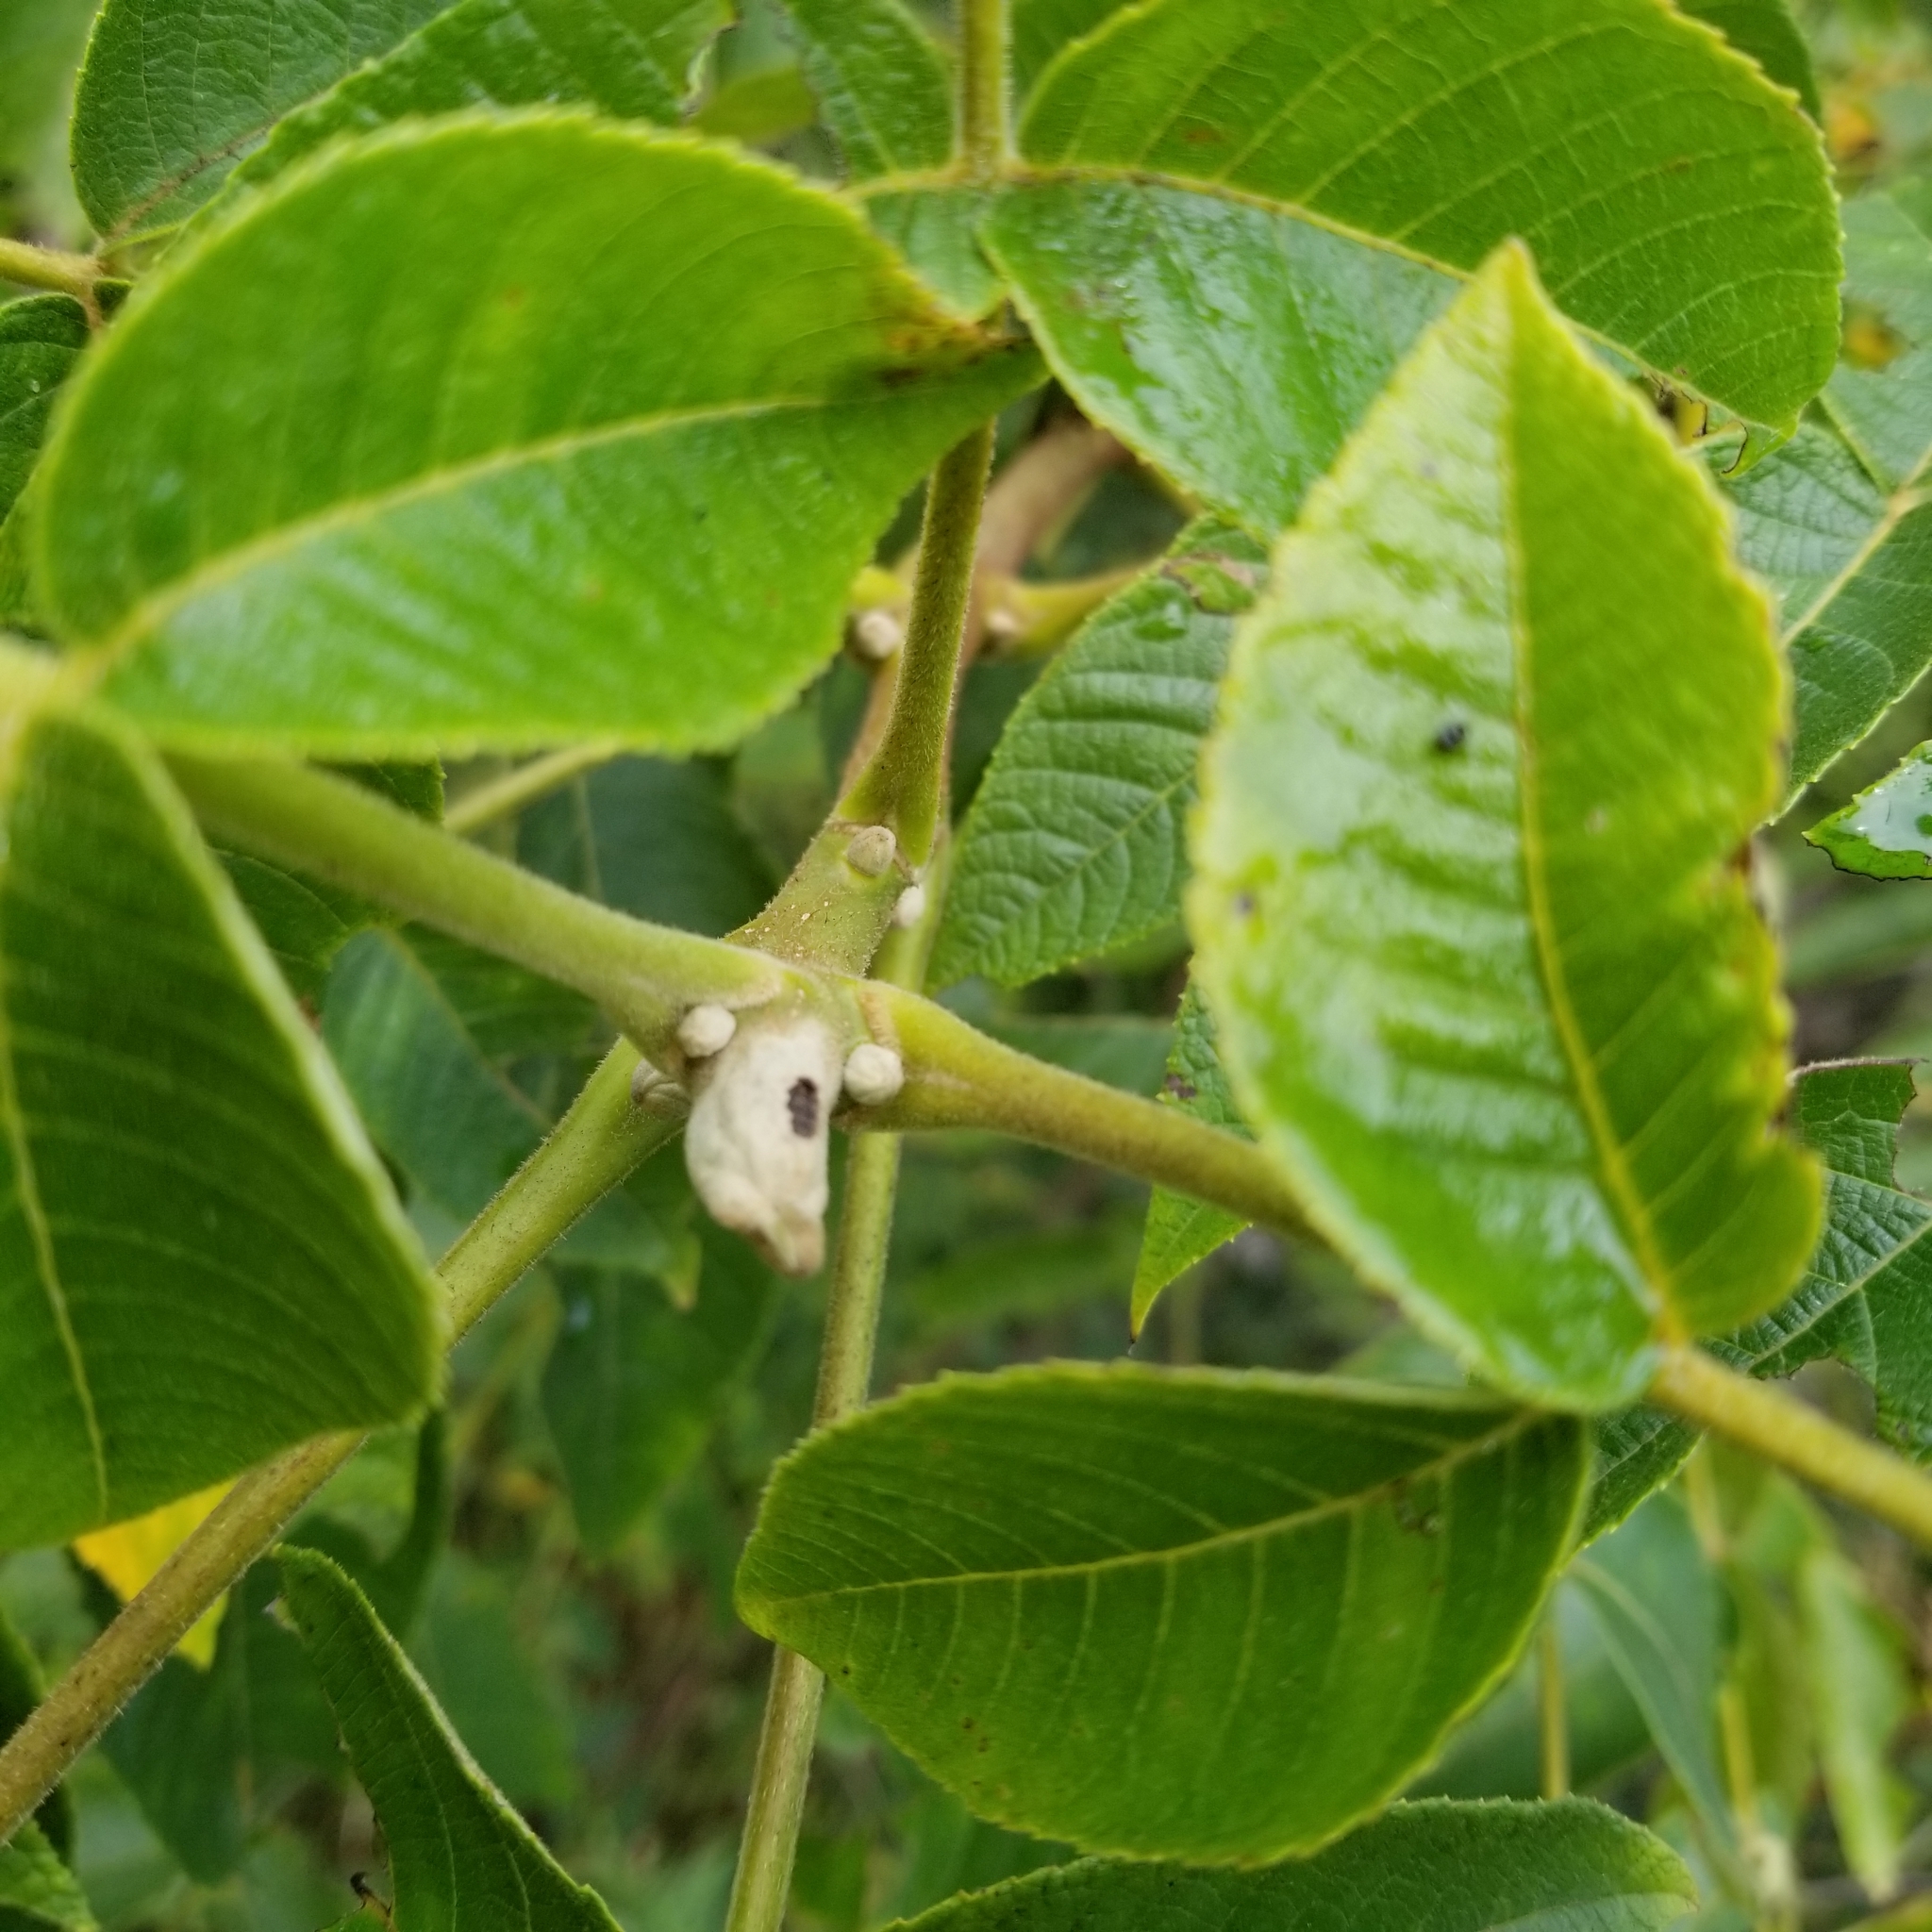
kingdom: Plantae
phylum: Tracheophyta
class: Magnoliopsida
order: Fagales
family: Juglandaceae
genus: Juglans
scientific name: Juglans cinerea
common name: Butternut
